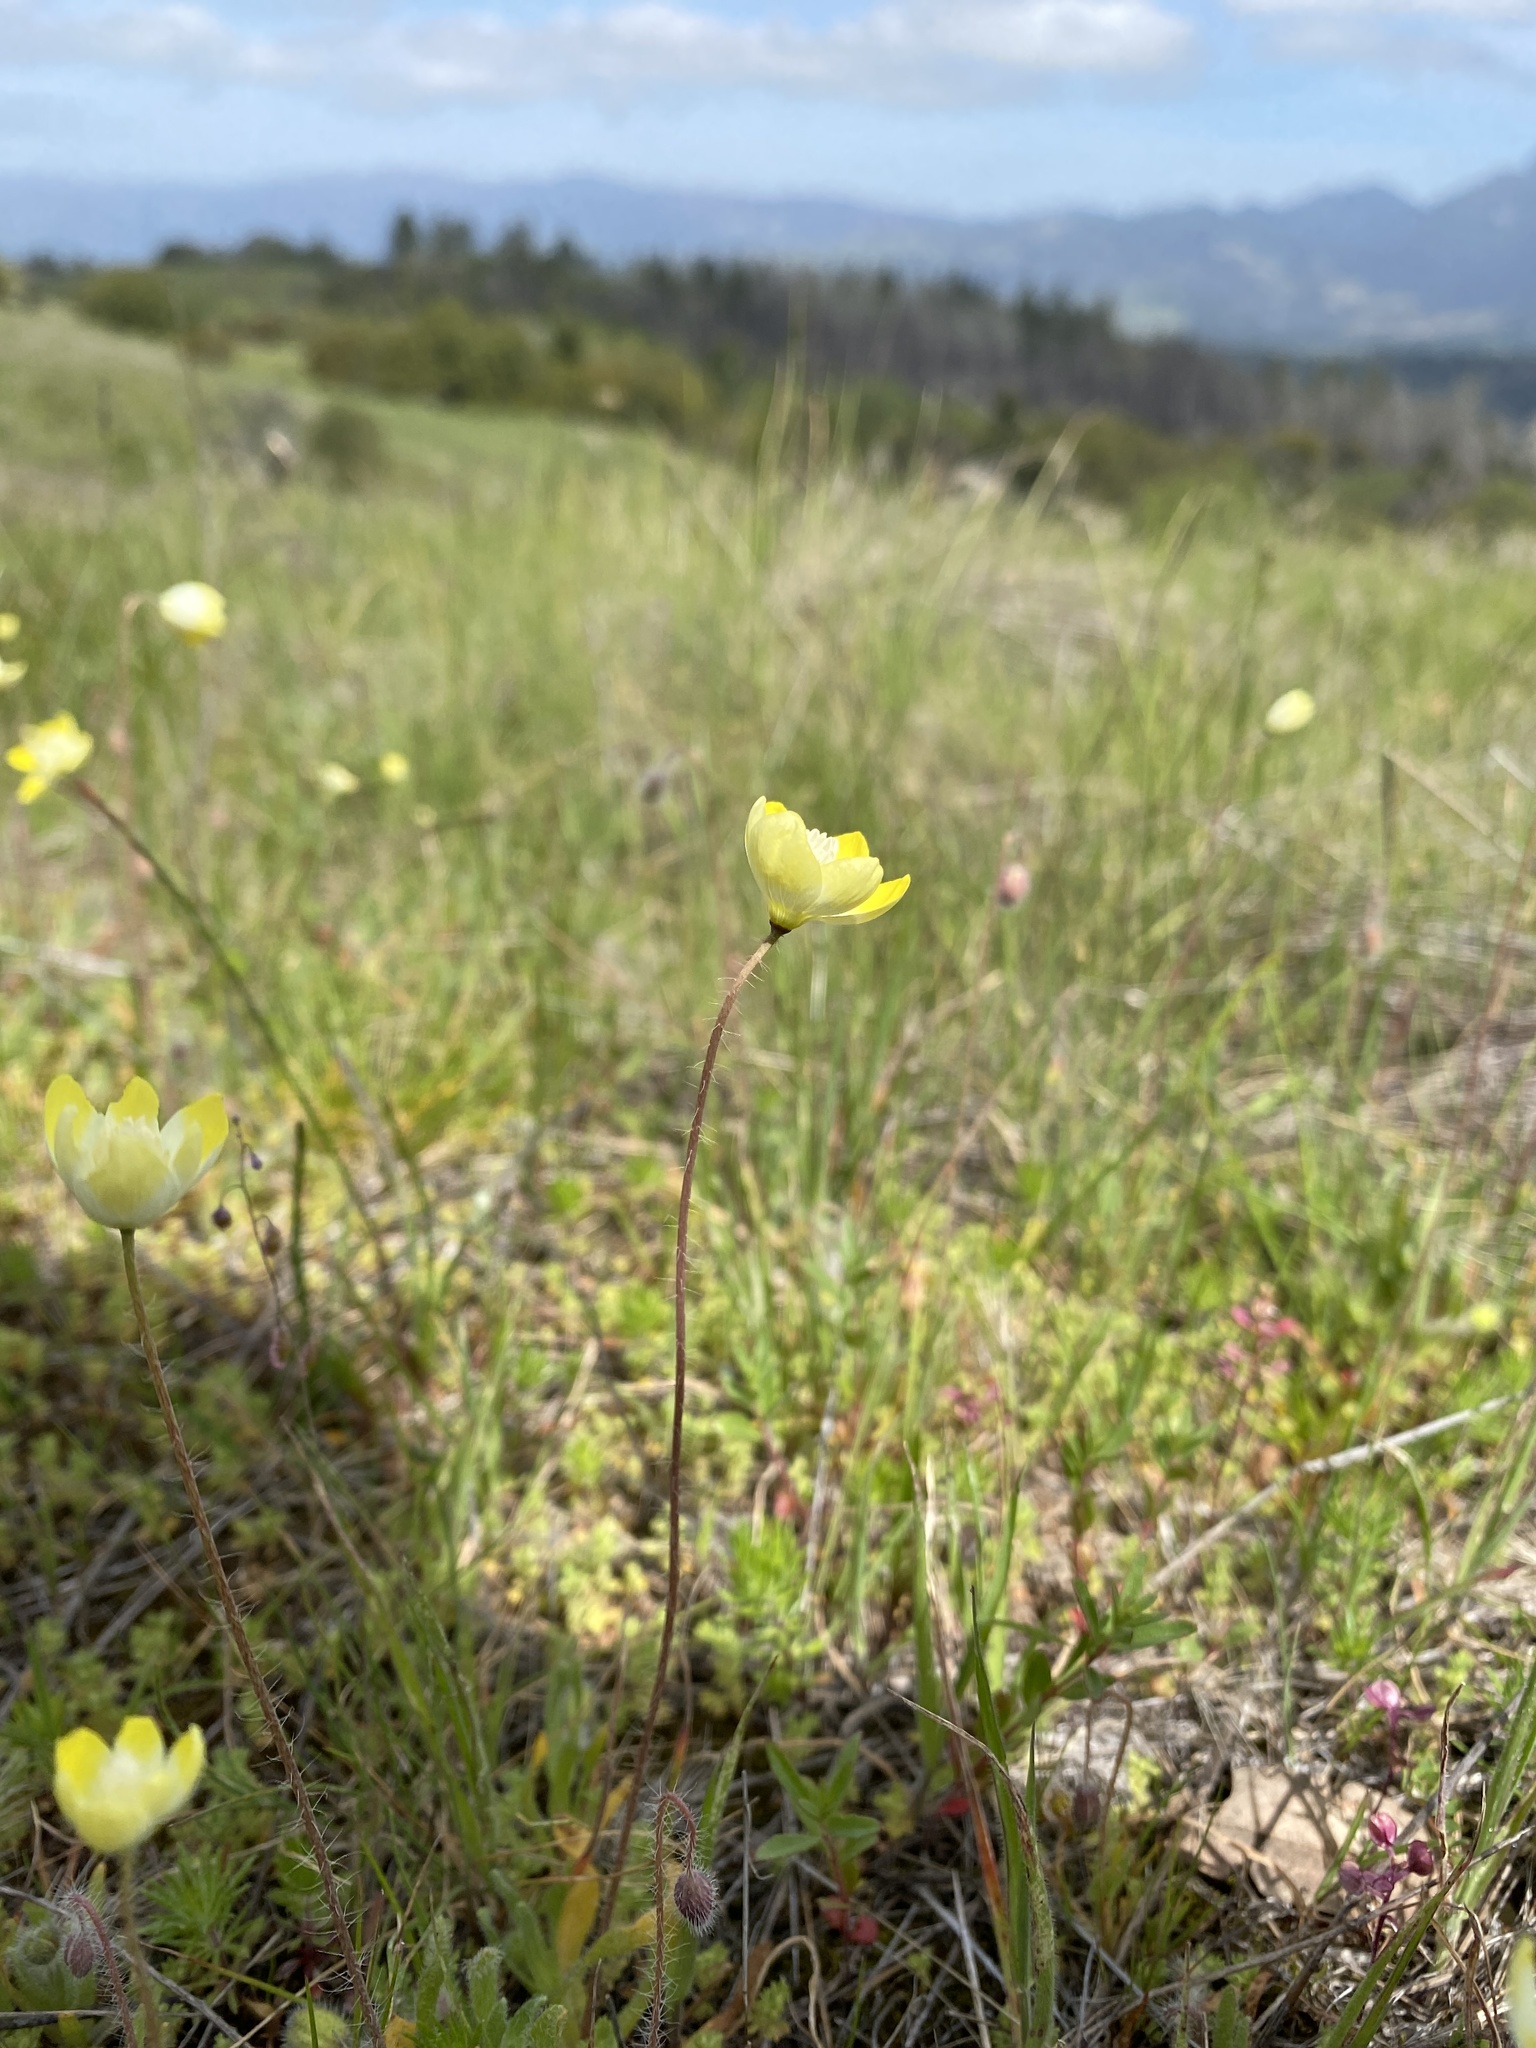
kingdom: Plantae
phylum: Tracheophyta
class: Magnoliopsida
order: Ranunculales
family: Papaveraceae
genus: Platystemon
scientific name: Platystemon californicus
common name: Cream-cups
